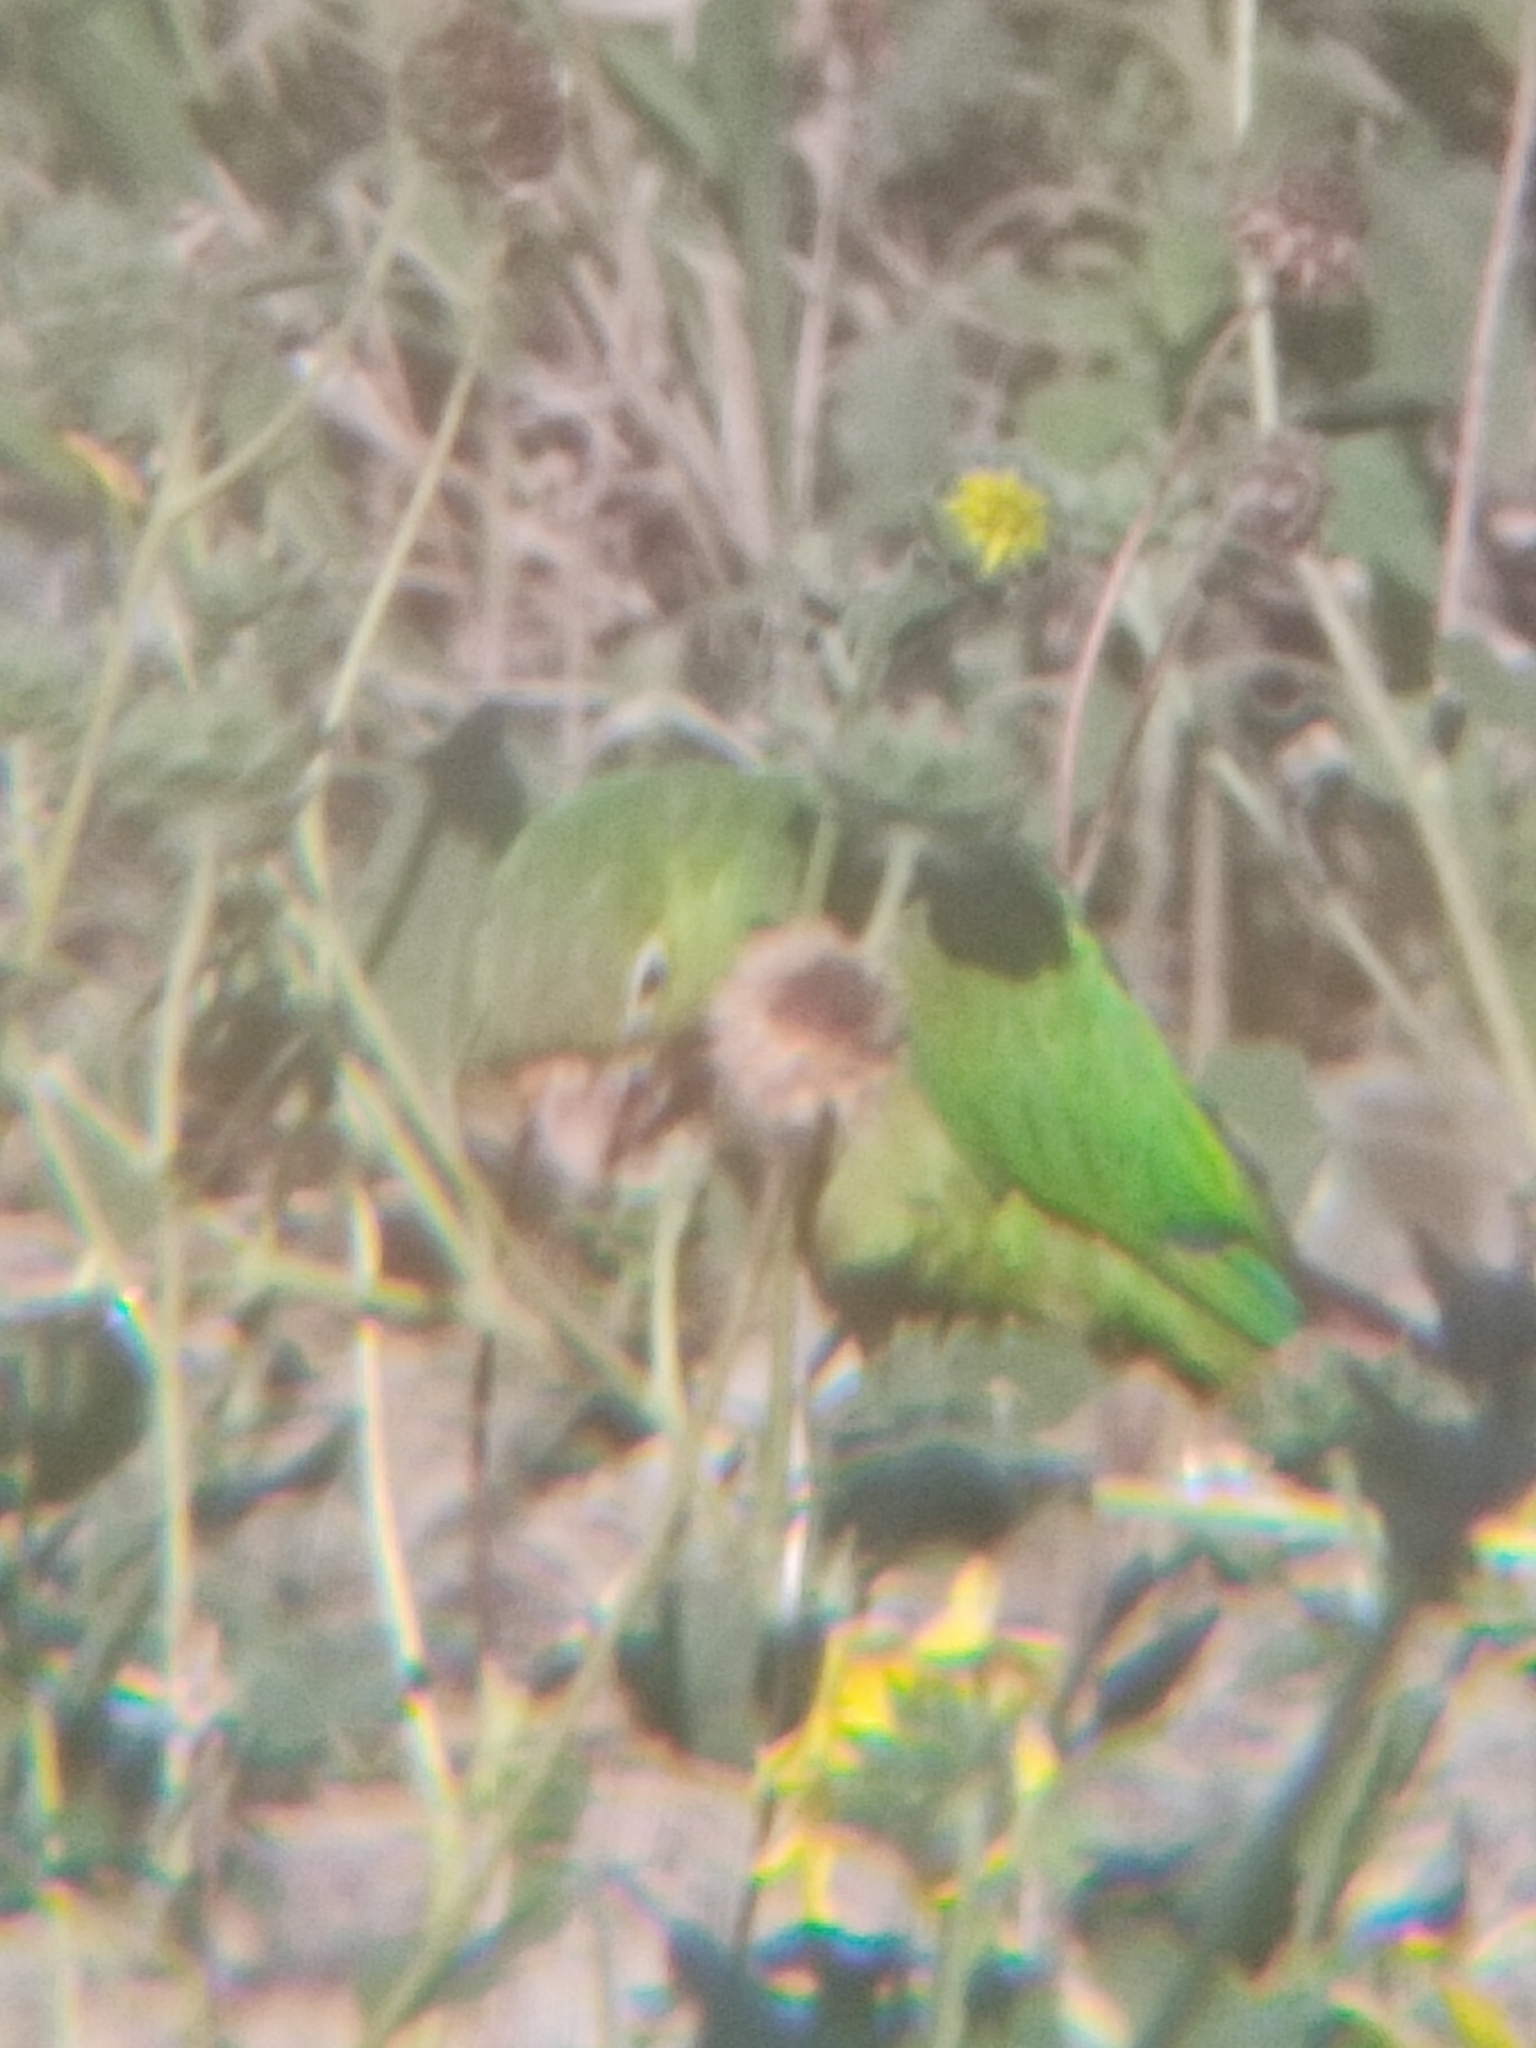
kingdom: Animalia
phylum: Chordata
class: Aves
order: Psittaciformes
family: Psittacidae
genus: Aratinga
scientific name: Aratinga nana
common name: Olive-throated parakeet
